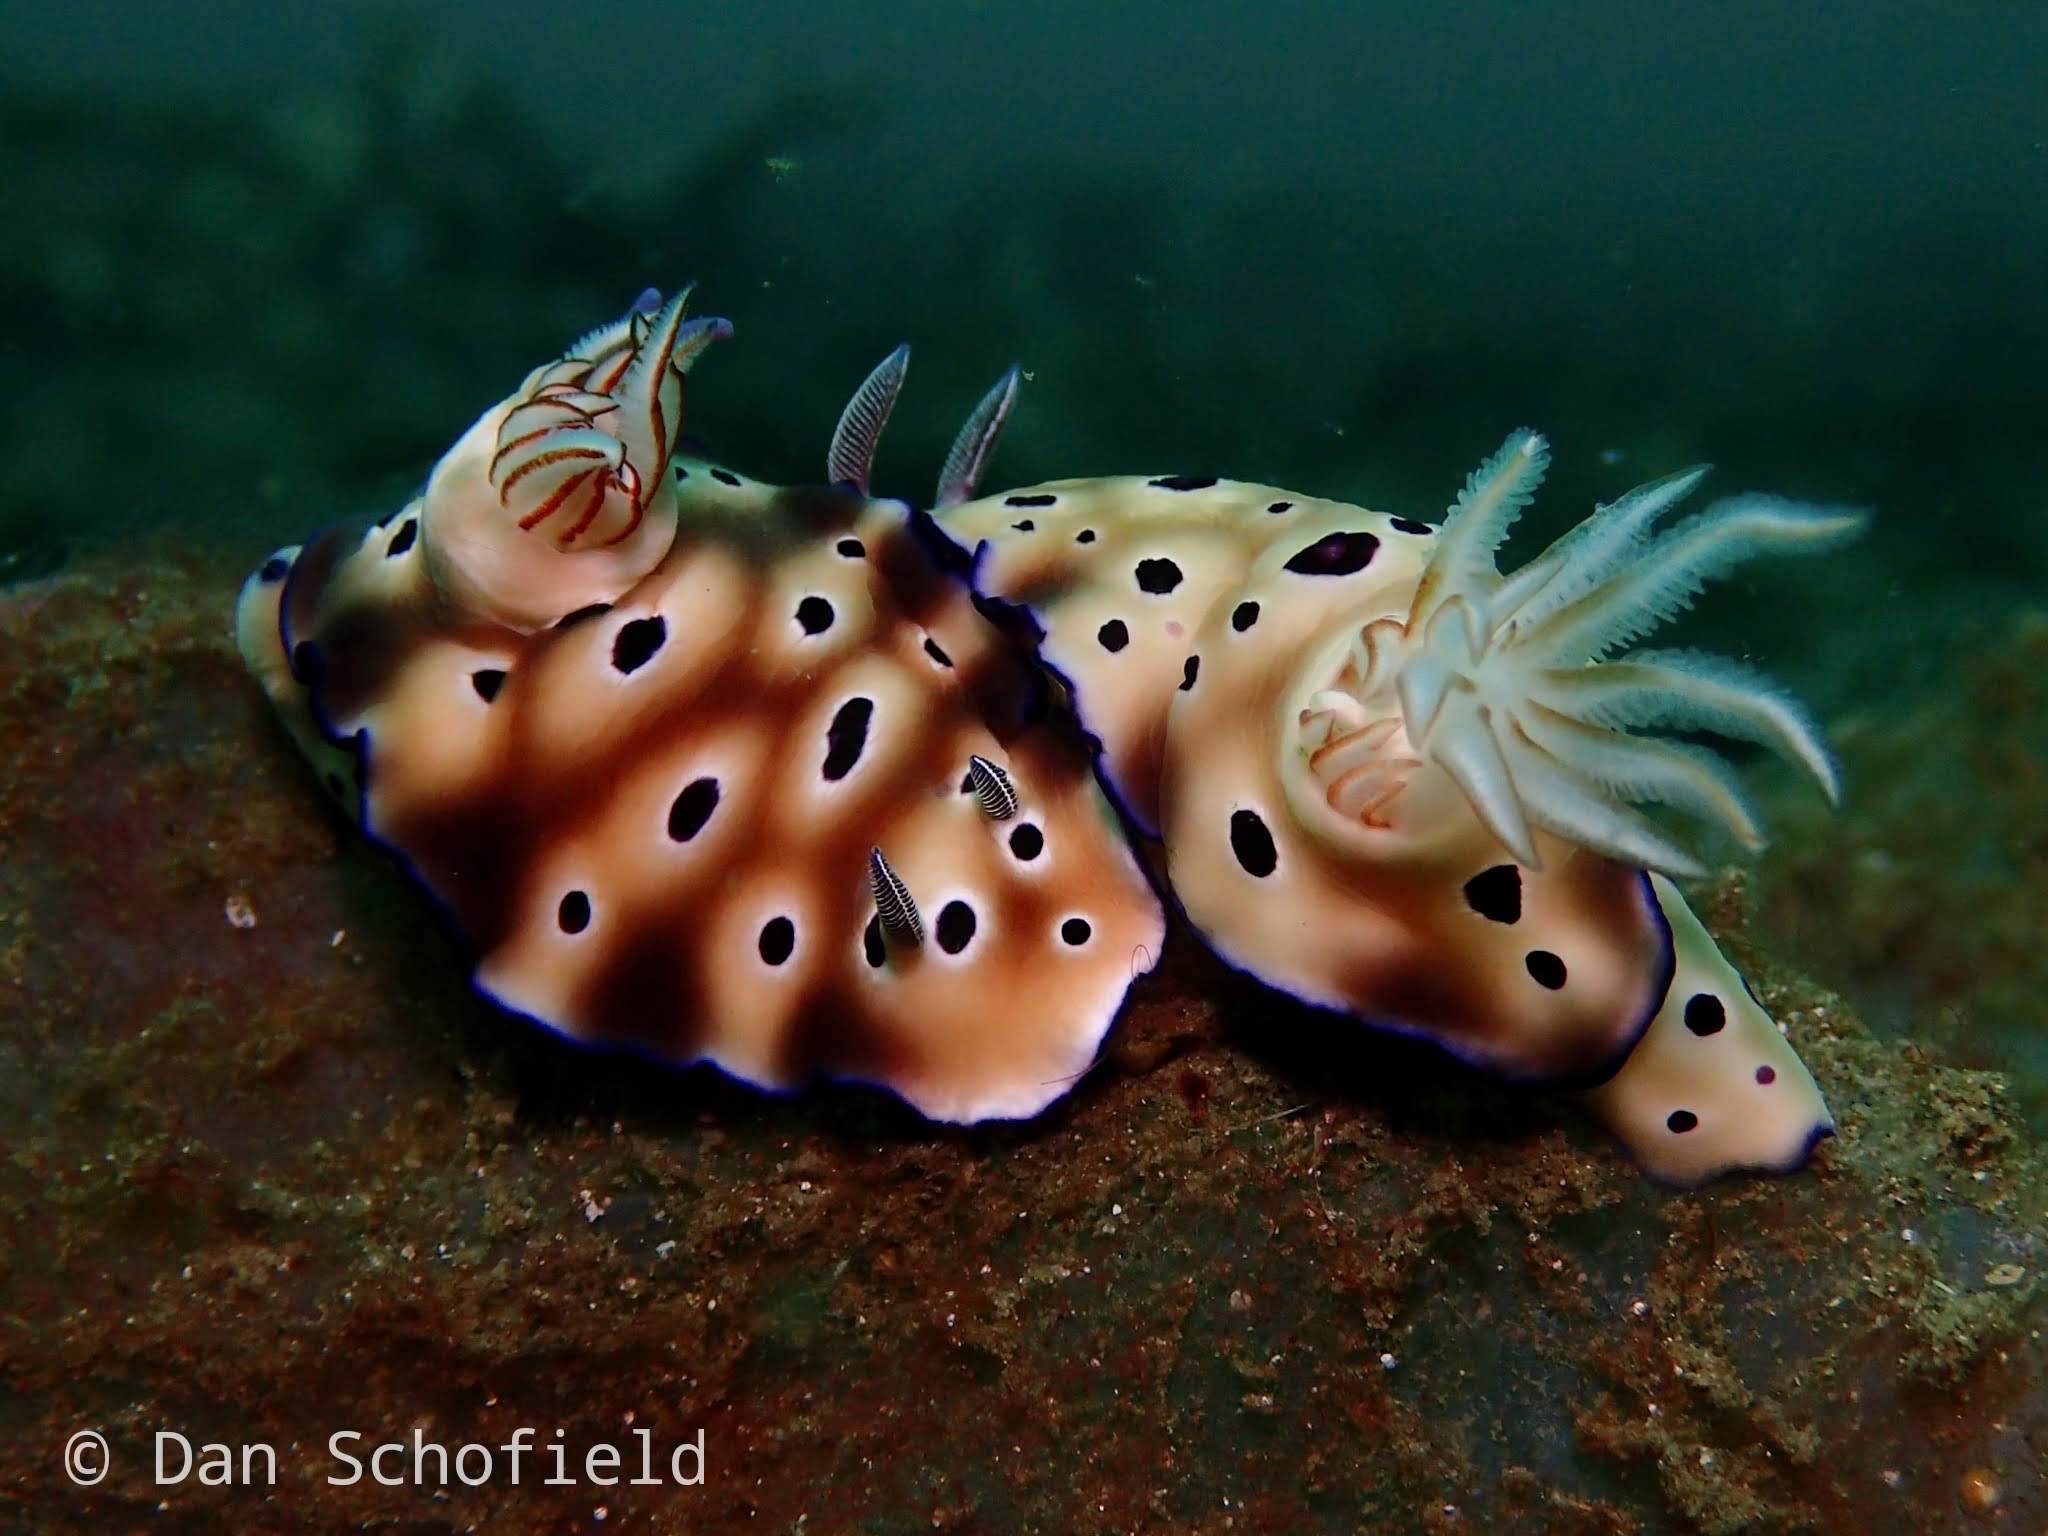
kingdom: Animalia
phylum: Mollusca
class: Gastropoda
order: Nudibranchia
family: Chromodorididae
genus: Hypselodoris
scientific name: Hypselodoris tryoni
